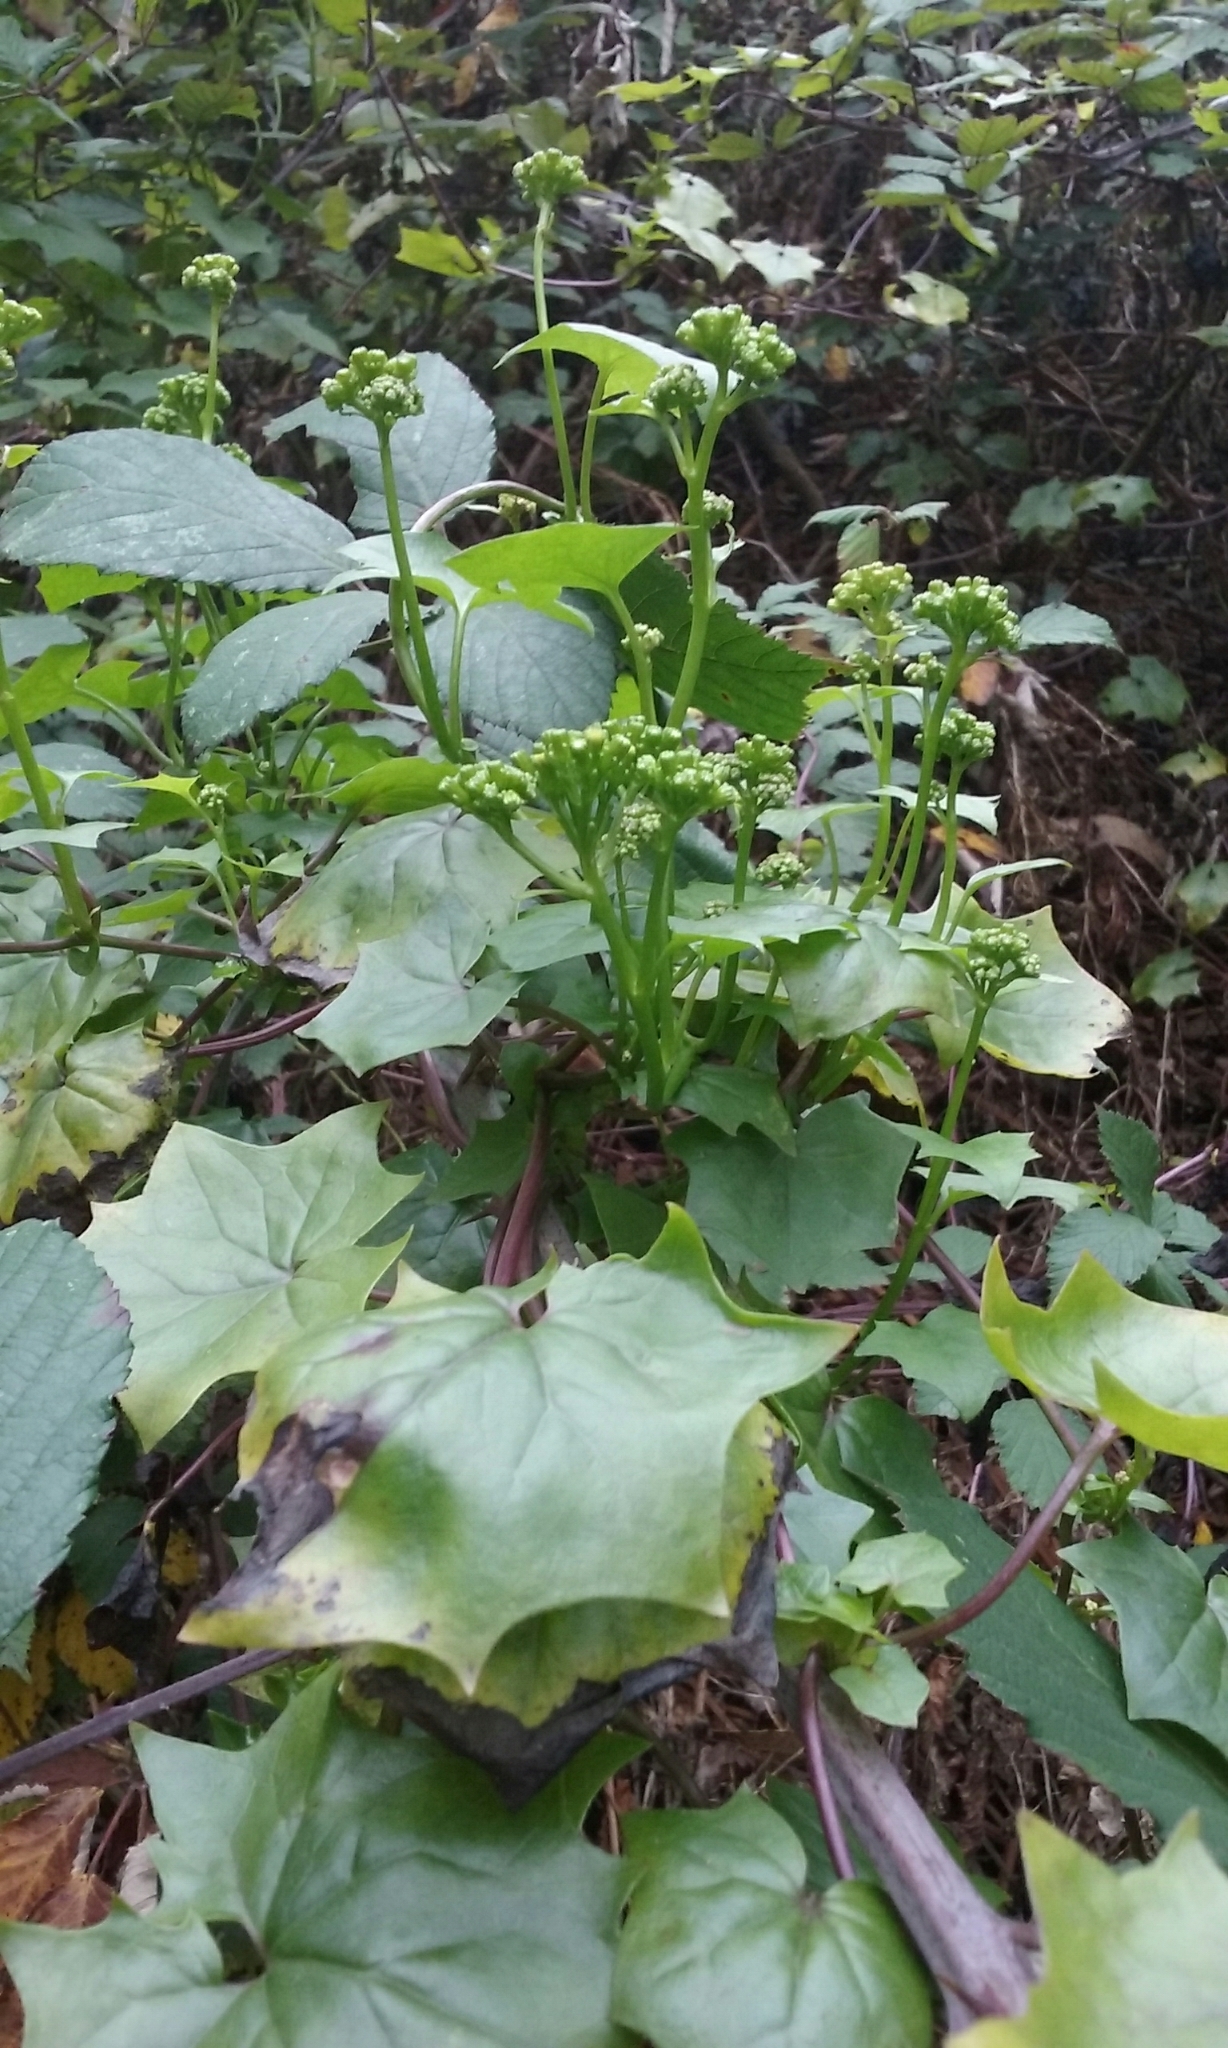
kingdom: Plantae
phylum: Tracheophyta
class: Magnoliopsida
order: Asterales
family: Asteraceae
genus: Delairea
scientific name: Delairea odorata
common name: Cape-ivy
